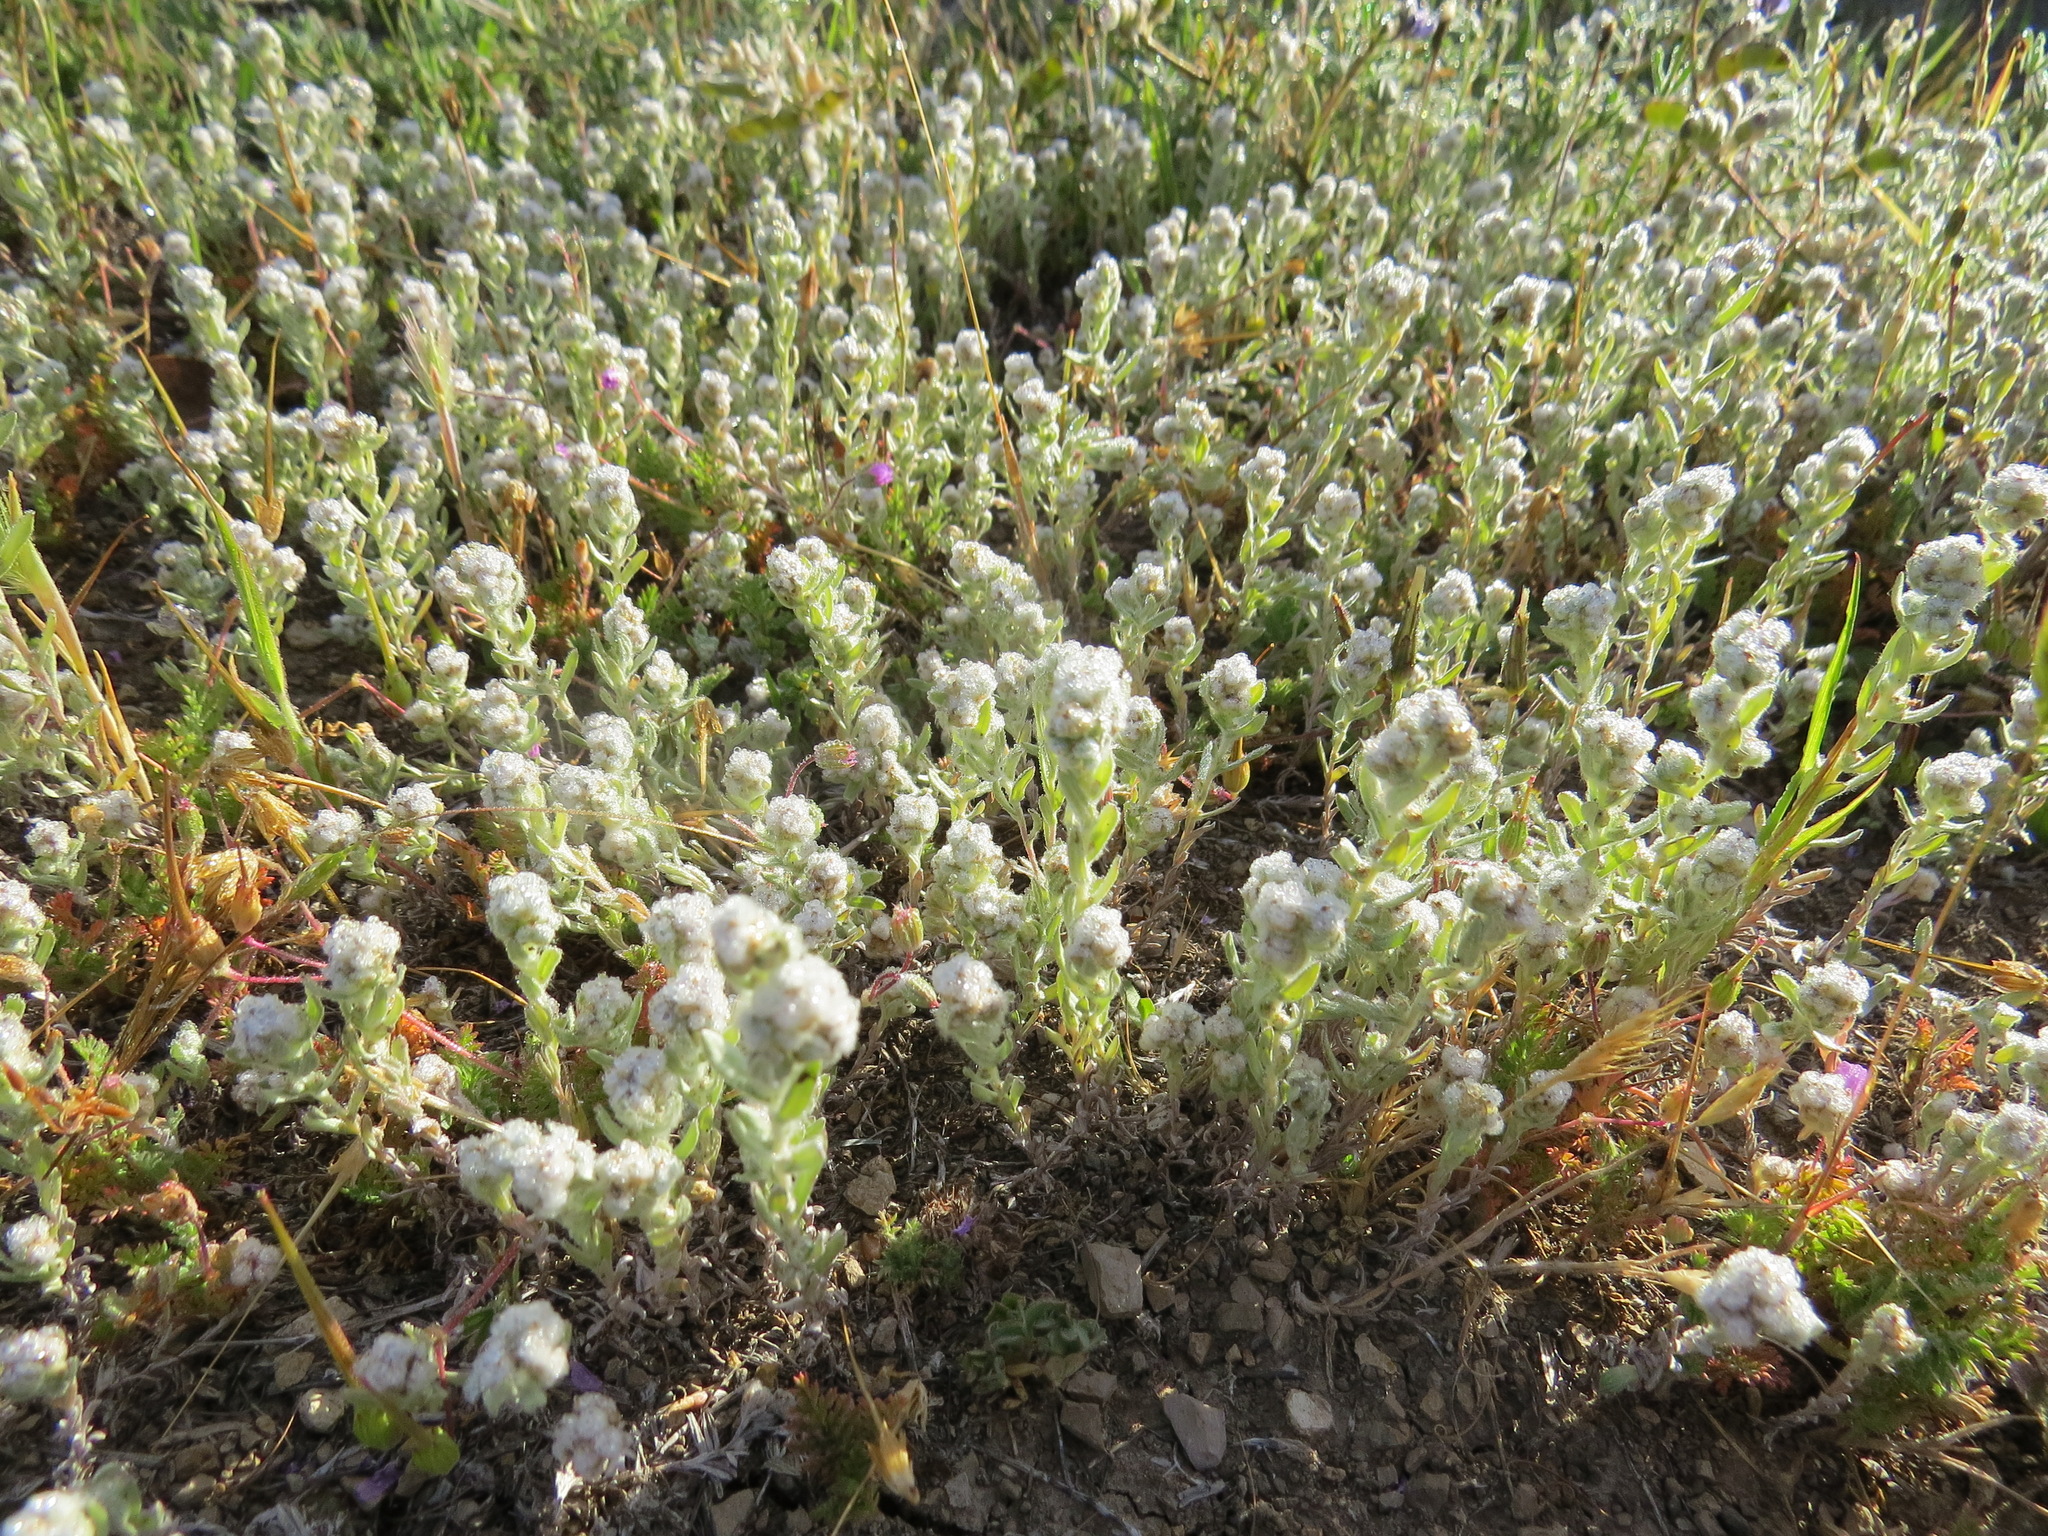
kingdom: Plantae
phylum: Tracheophyta
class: Magnoliopsida
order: Asterales
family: Asteraceae
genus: Bombycilaena
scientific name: Bombycilaena californica
